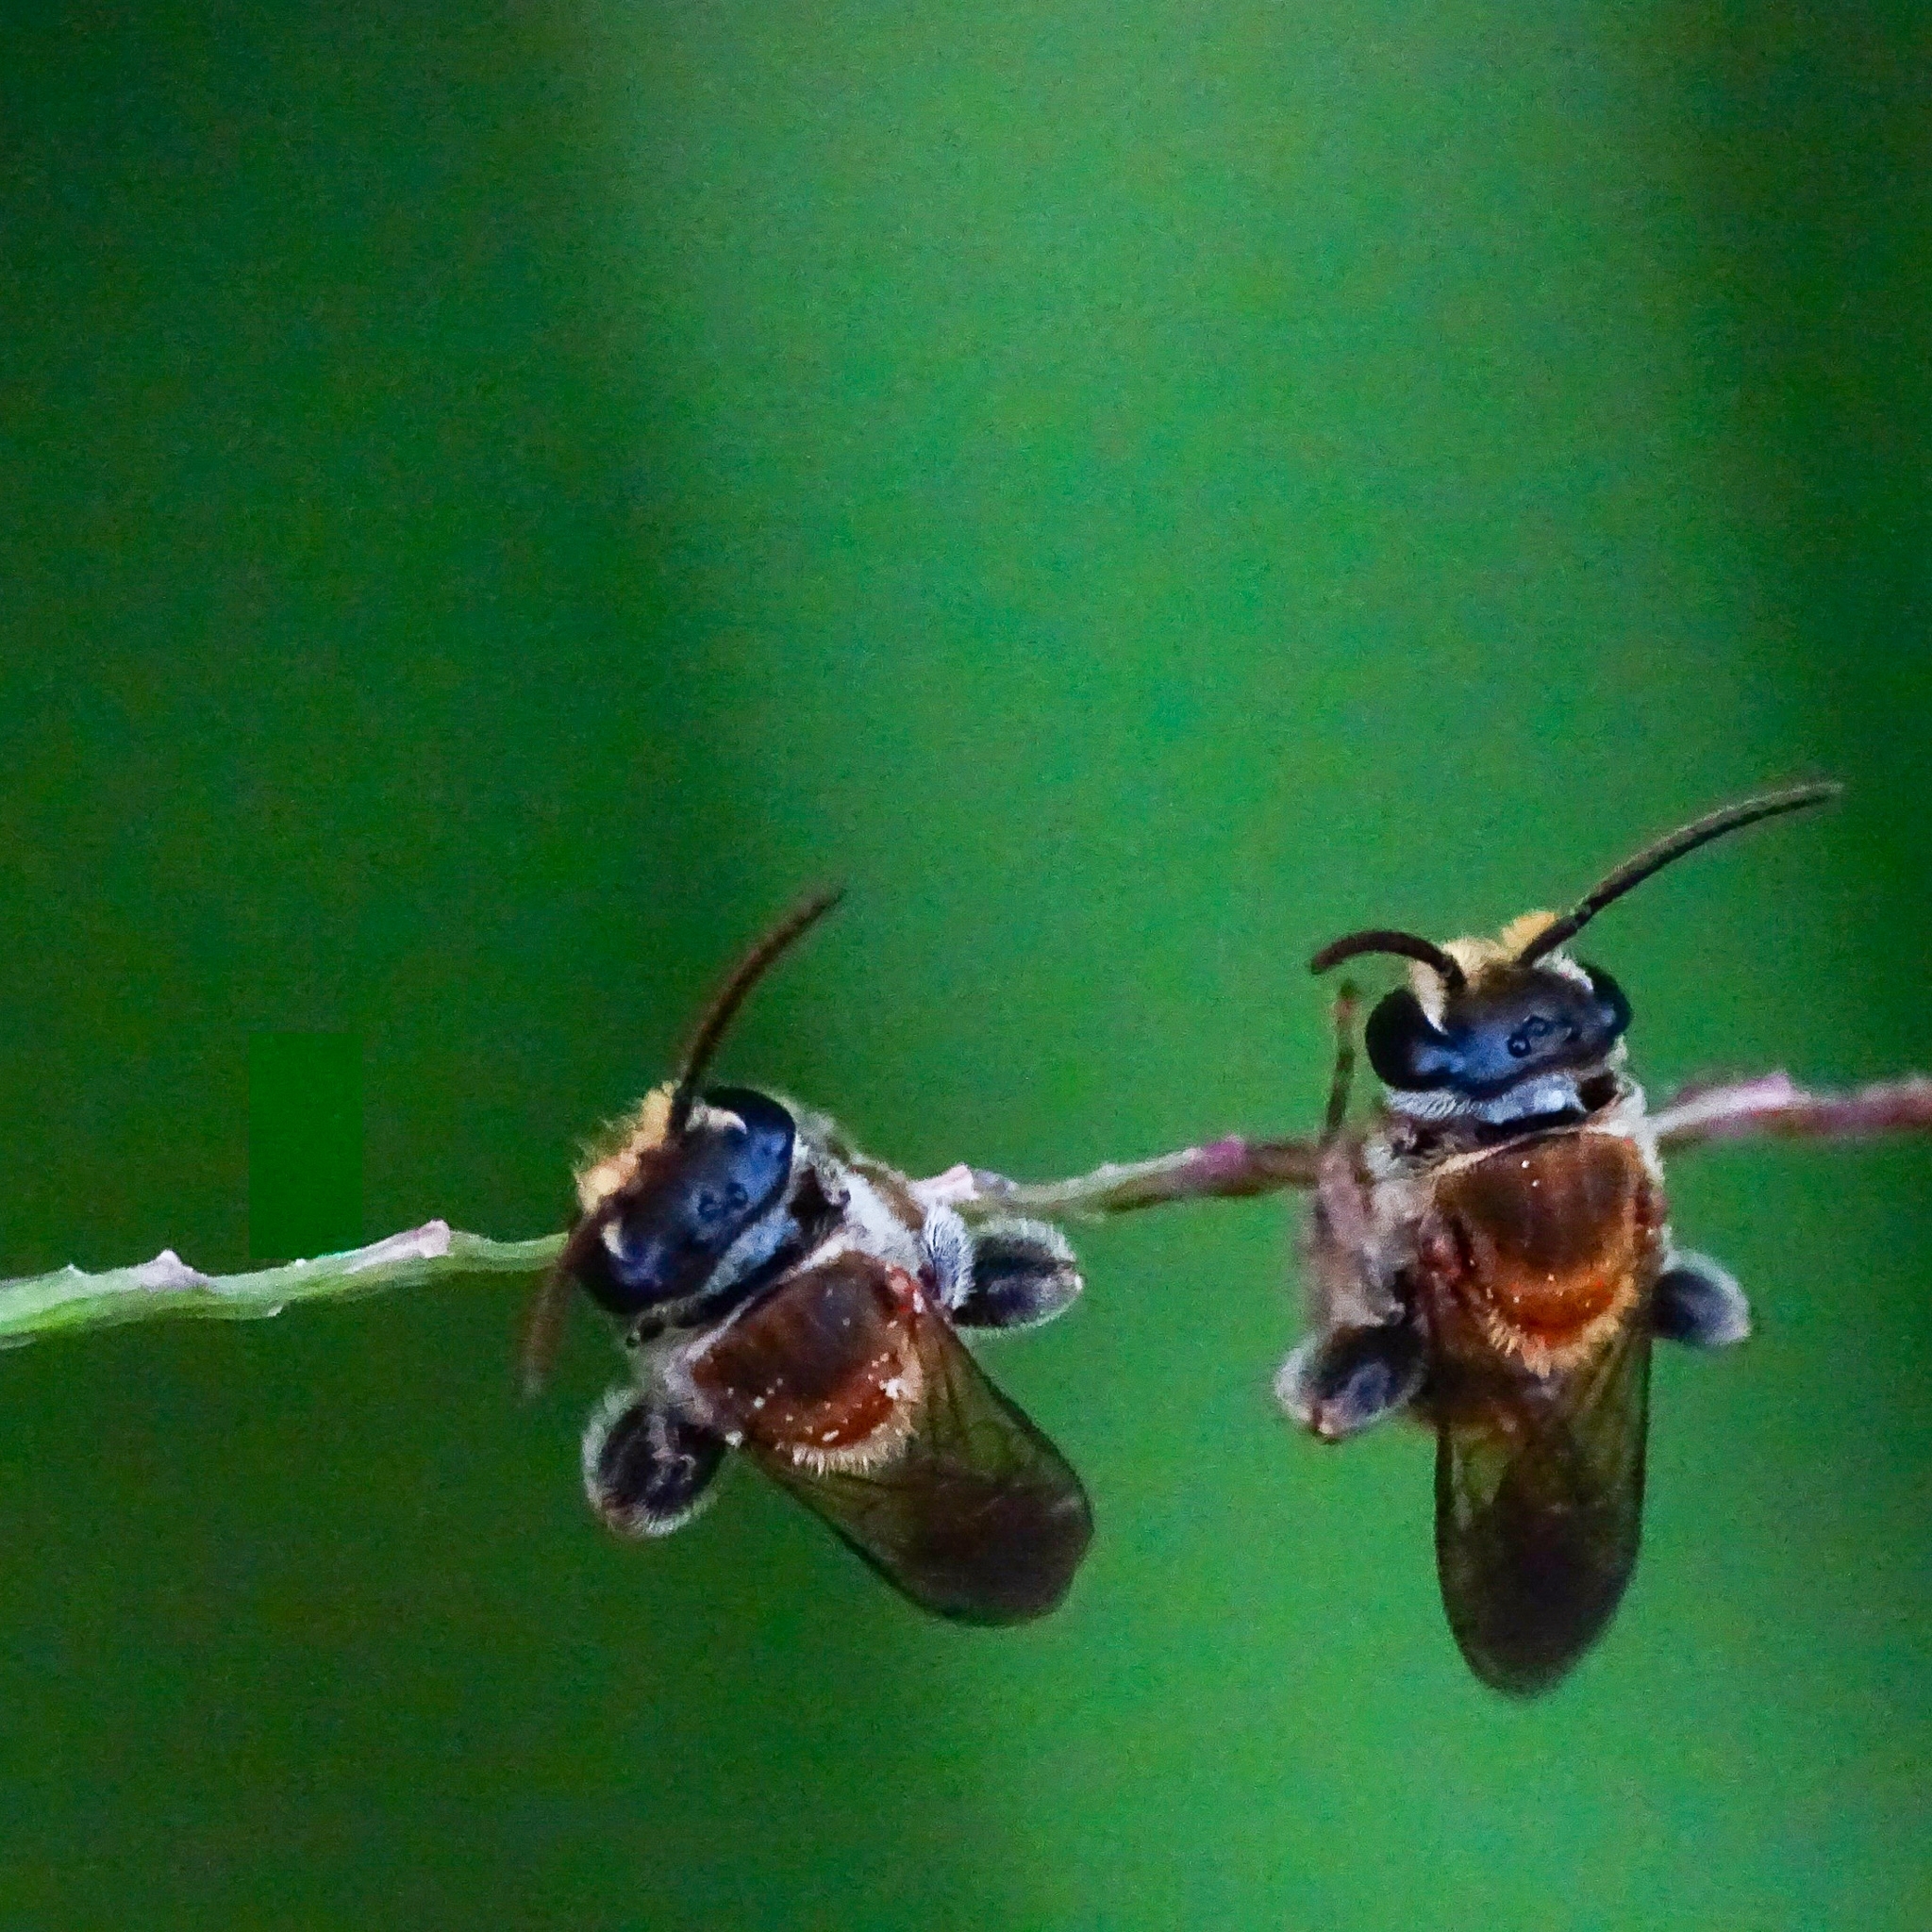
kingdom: Animalia
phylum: Arthropoda
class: Insecta
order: Hymenoptera
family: Halictidae
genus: Lipotriches
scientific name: Lipotriches
